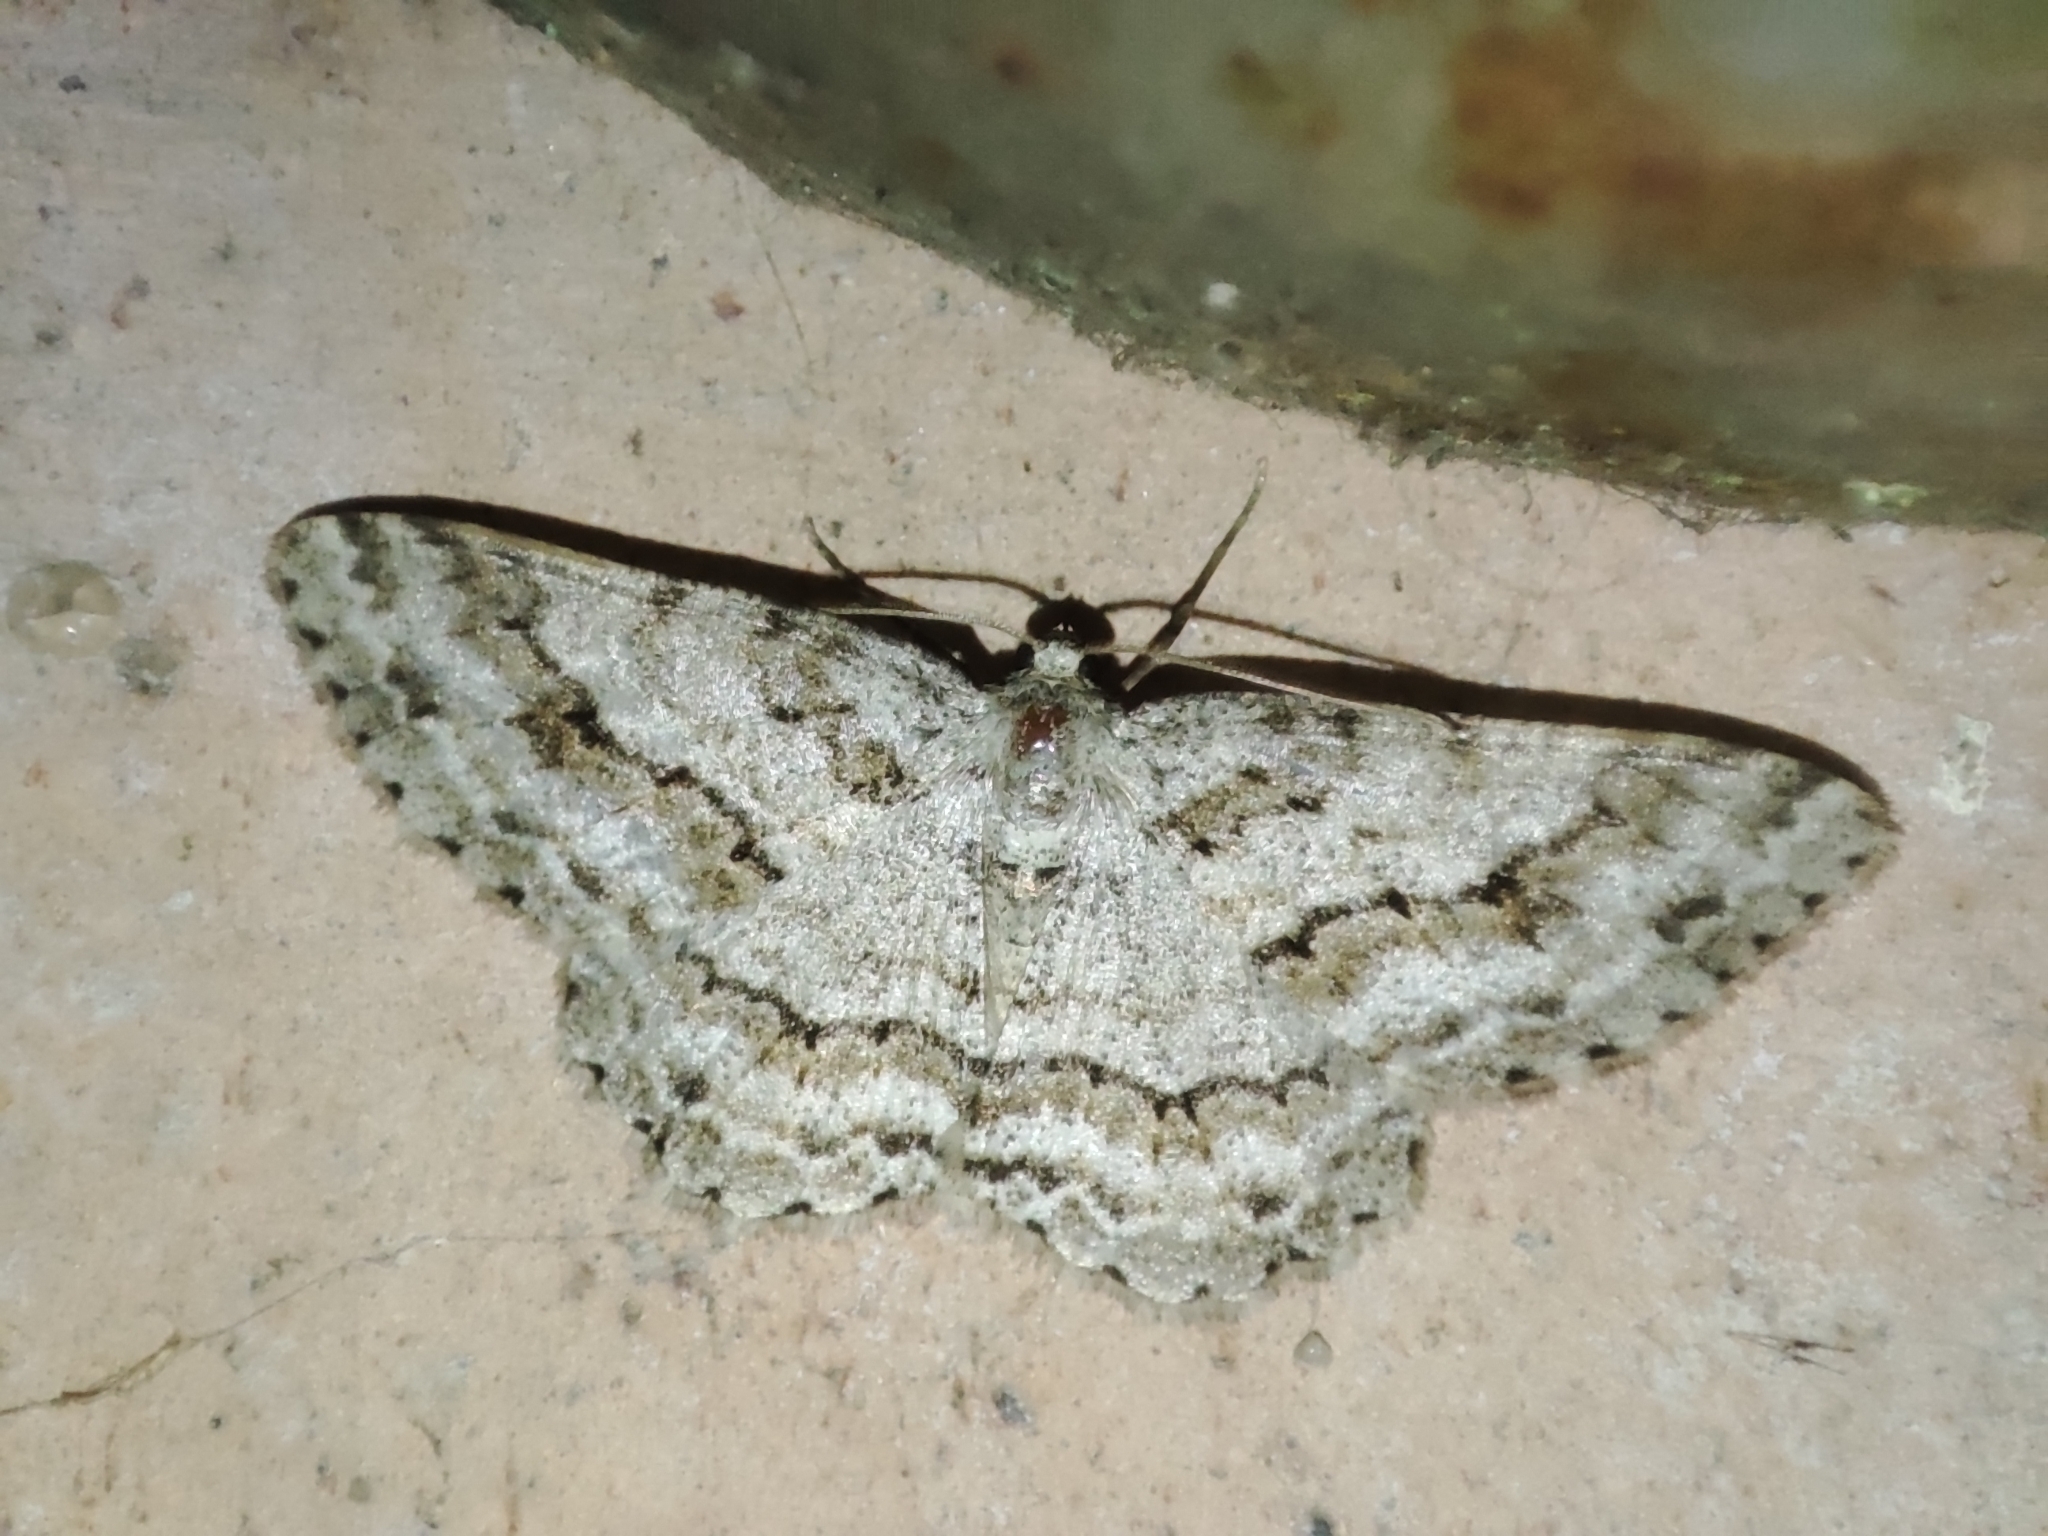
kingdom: Animalia
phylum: Arthropoda
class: Insecta
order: Lepidoptera
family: Geometridae
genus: Ectropis
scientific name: Ectropis crepuscularia
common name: Engrailed
